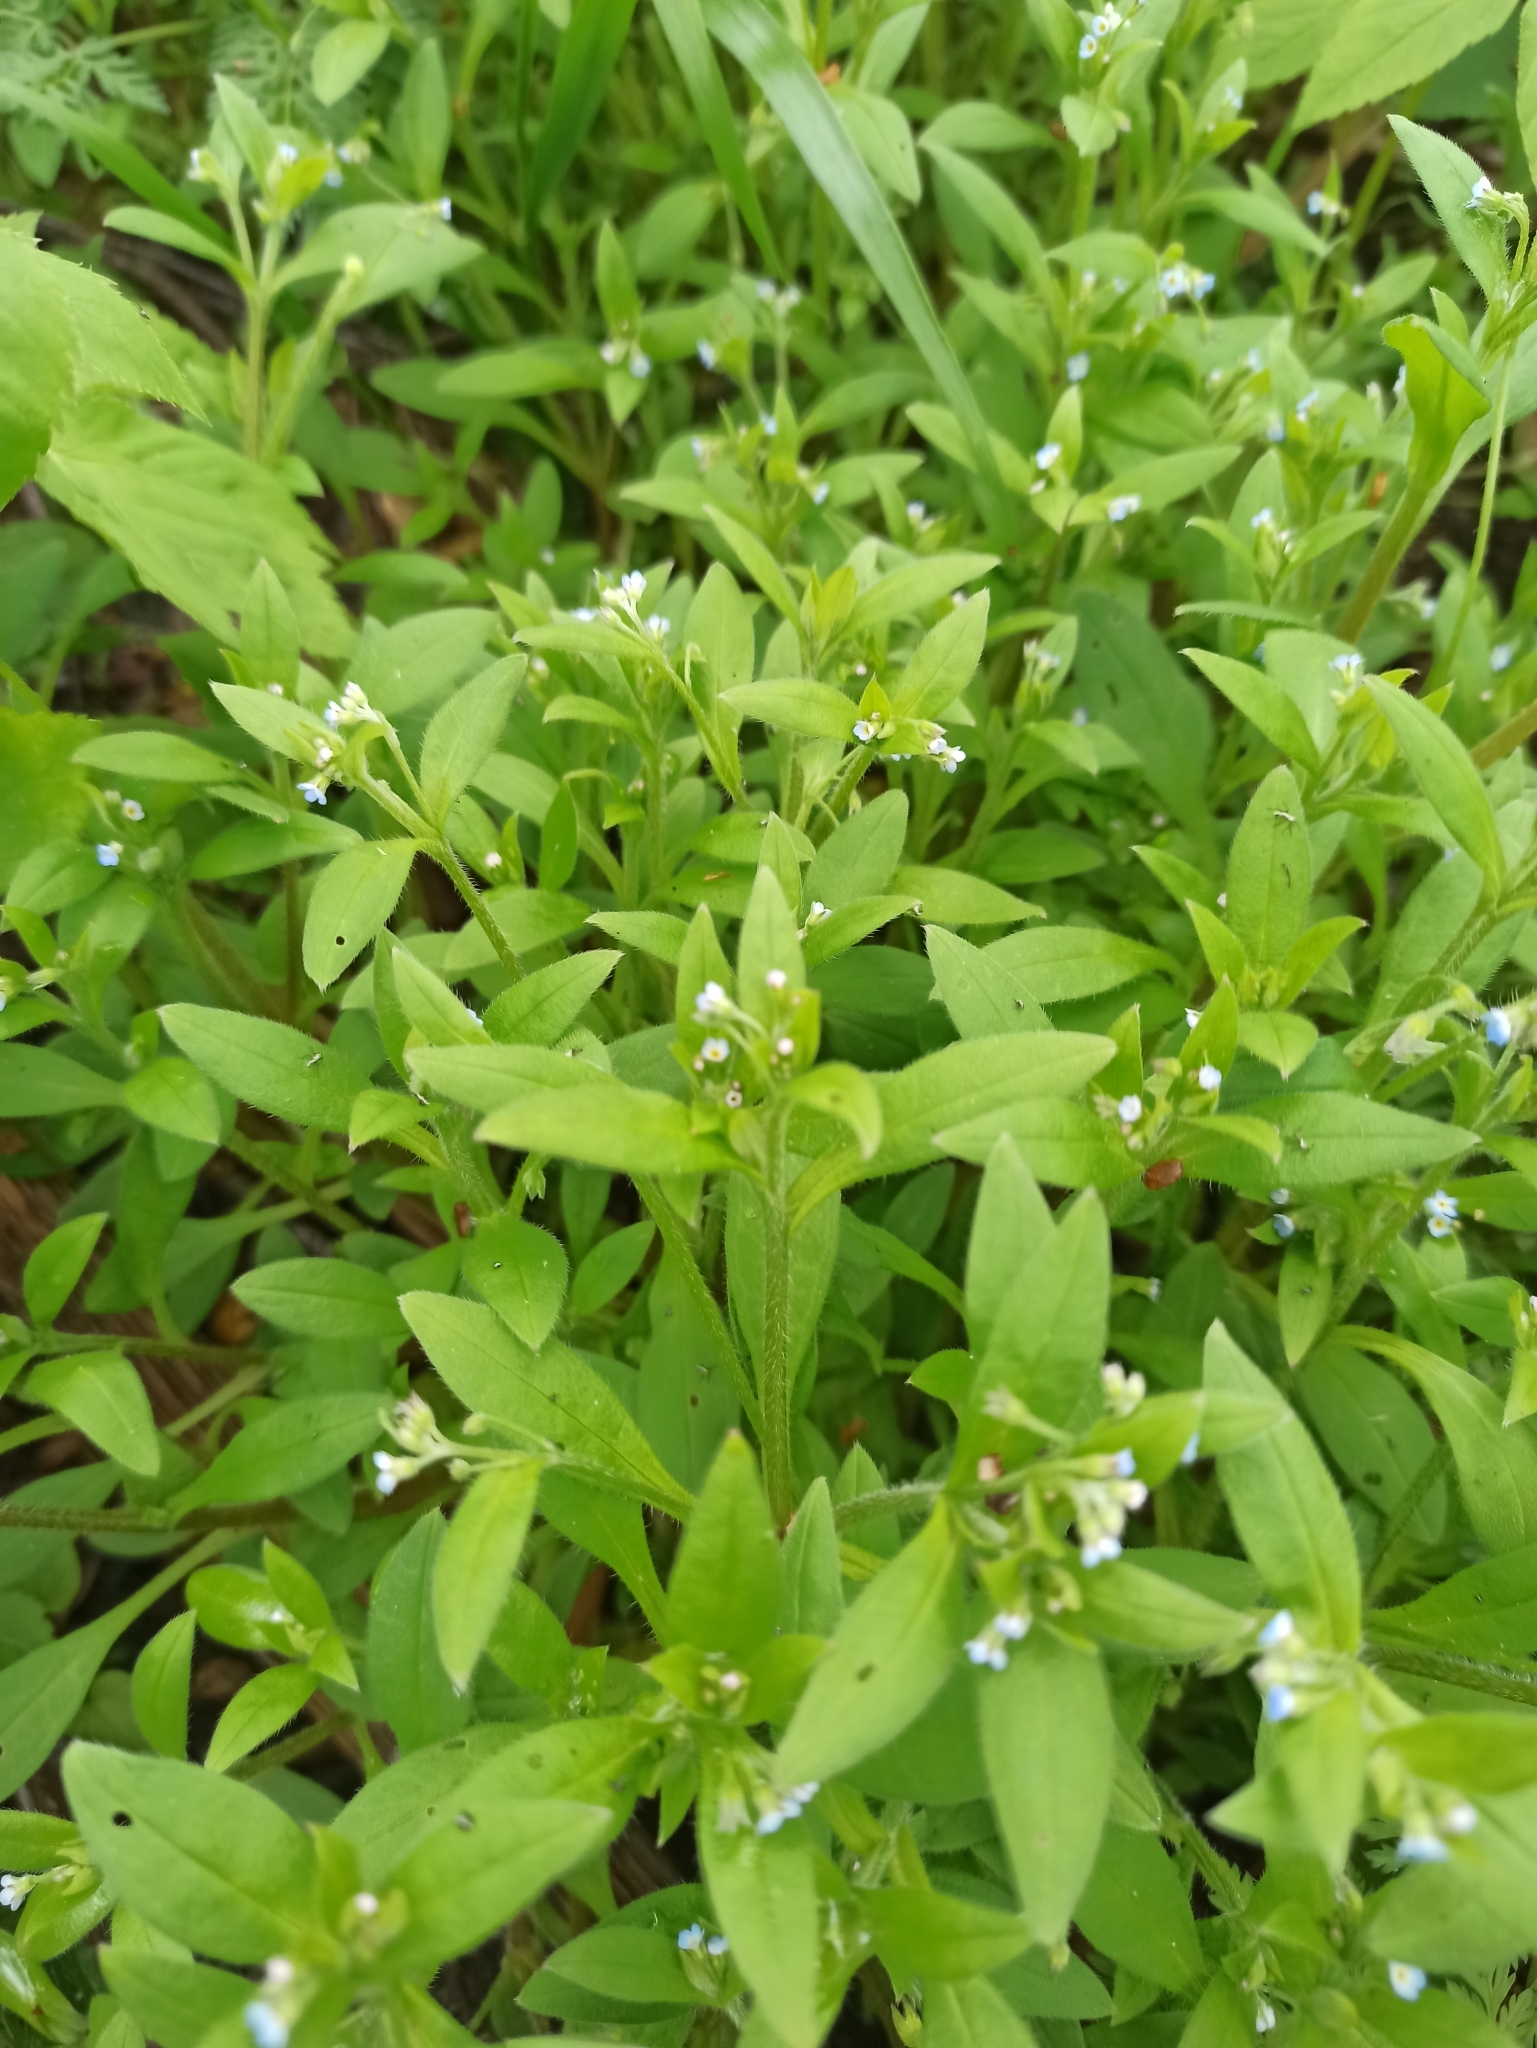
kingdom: Plantae
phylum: Tracheophyta
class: Magnoliopsida
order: Boraginales
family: Boraginaceae
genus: Myosotis
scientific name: Myosotis sparsiflora
